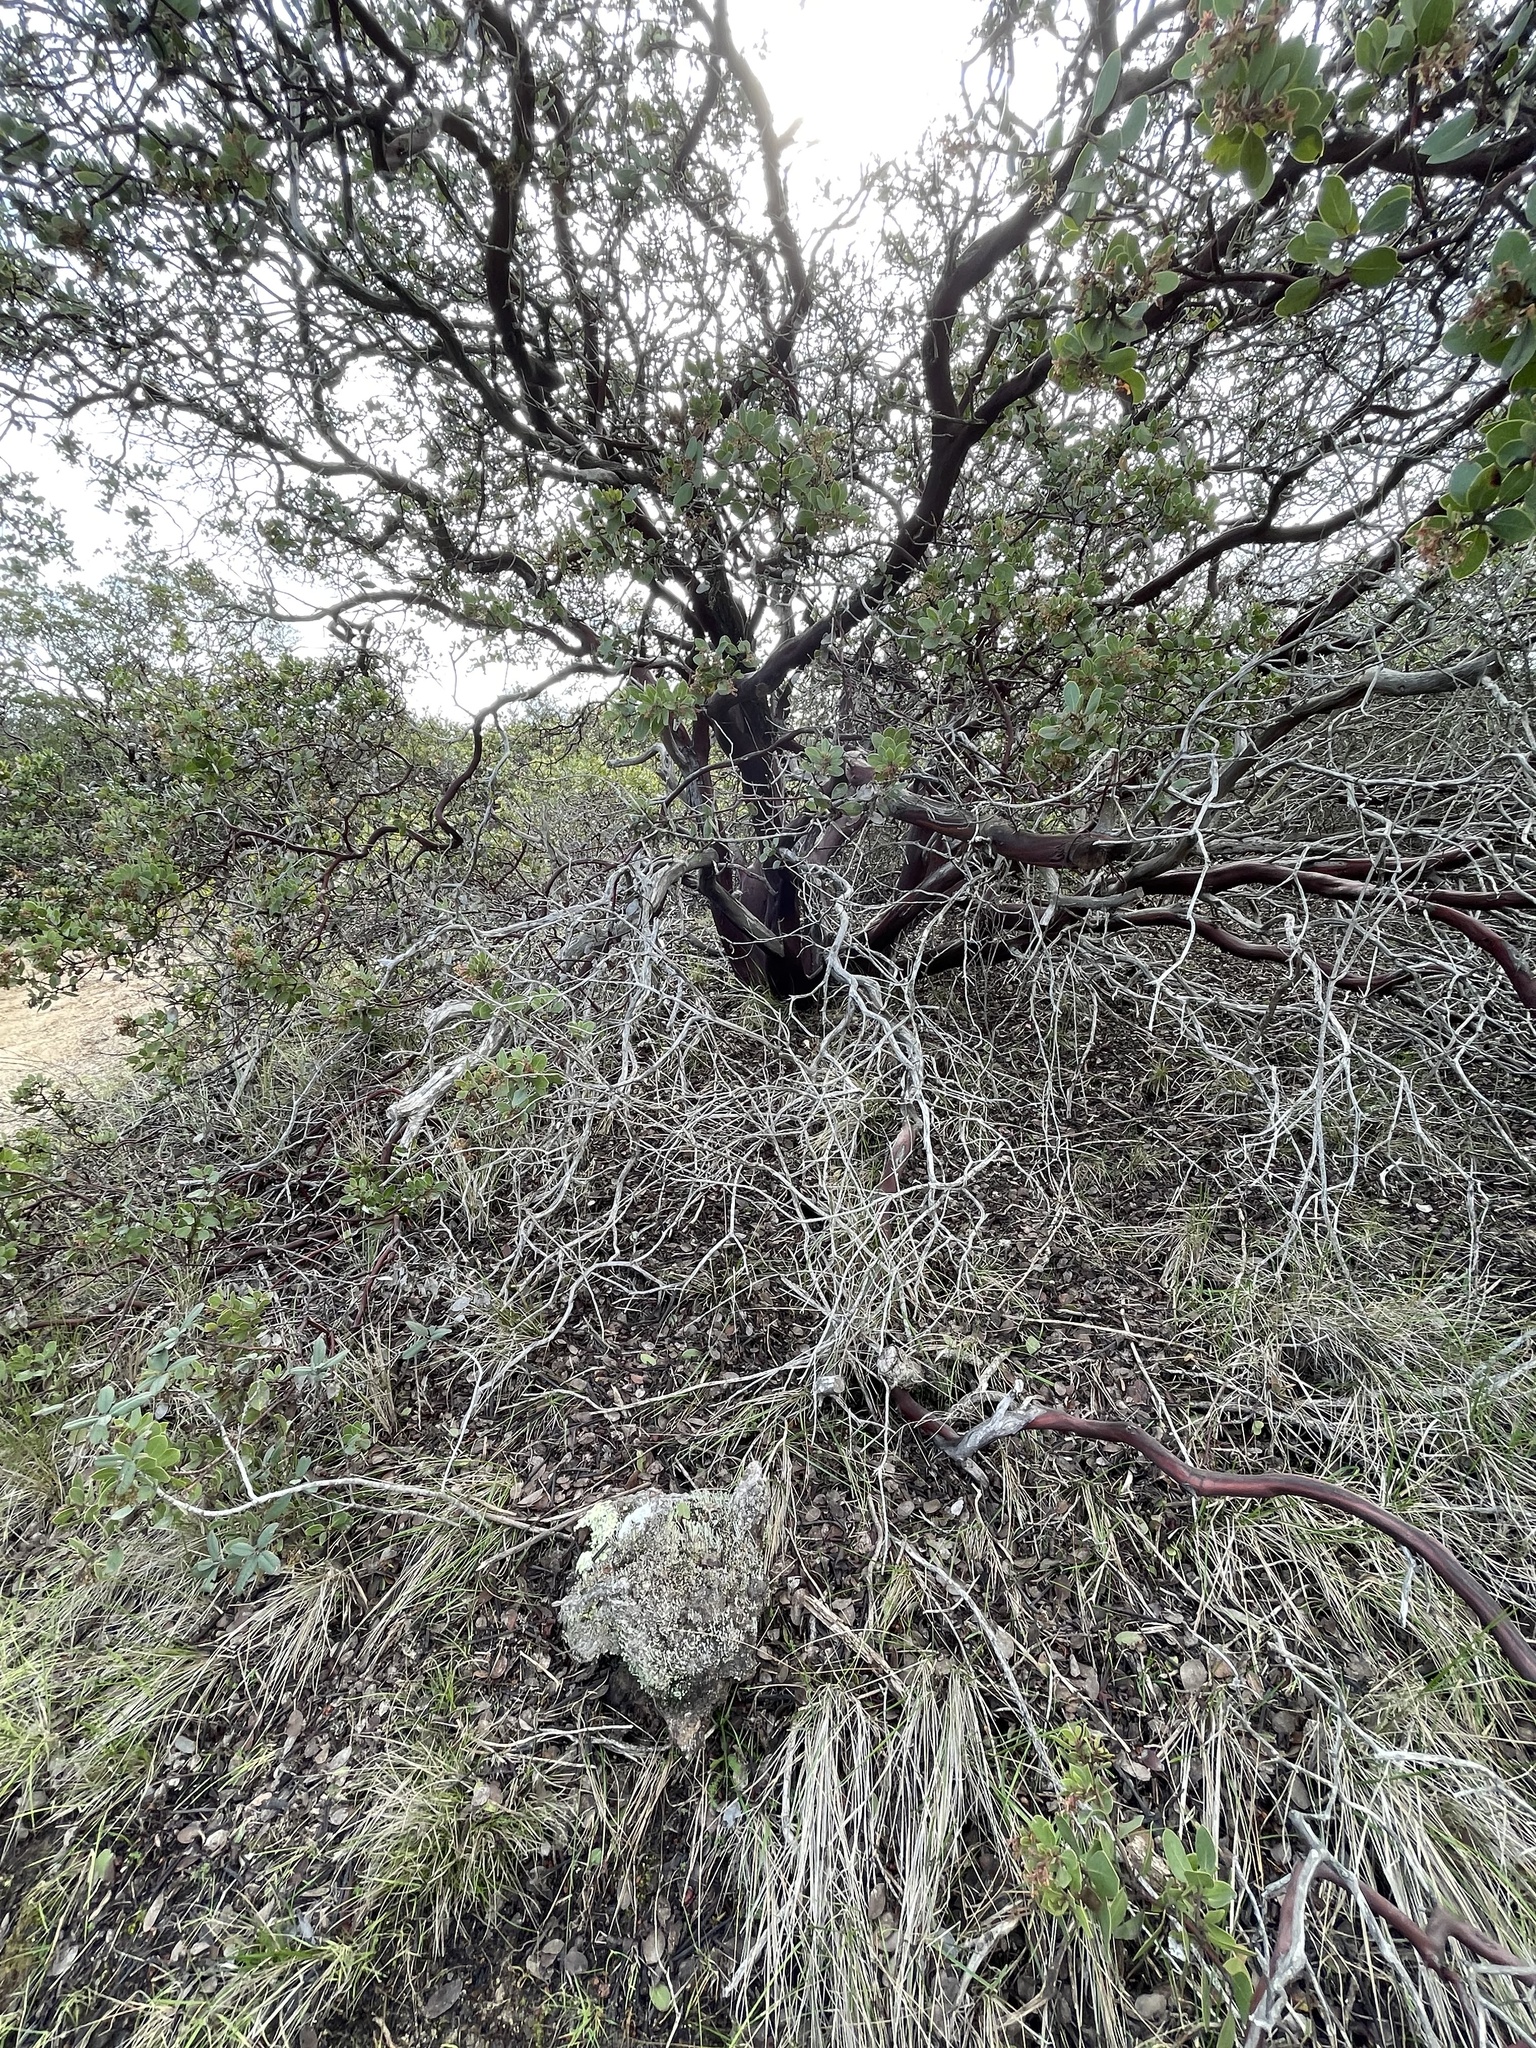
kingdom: Plantae
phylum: Tracheophyta
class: Magnoliopsida
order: Ericales
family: Ericaceae
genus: Arctostaphylos
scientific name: Arctostaphylos montereyensis
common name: Monterey manzanita
